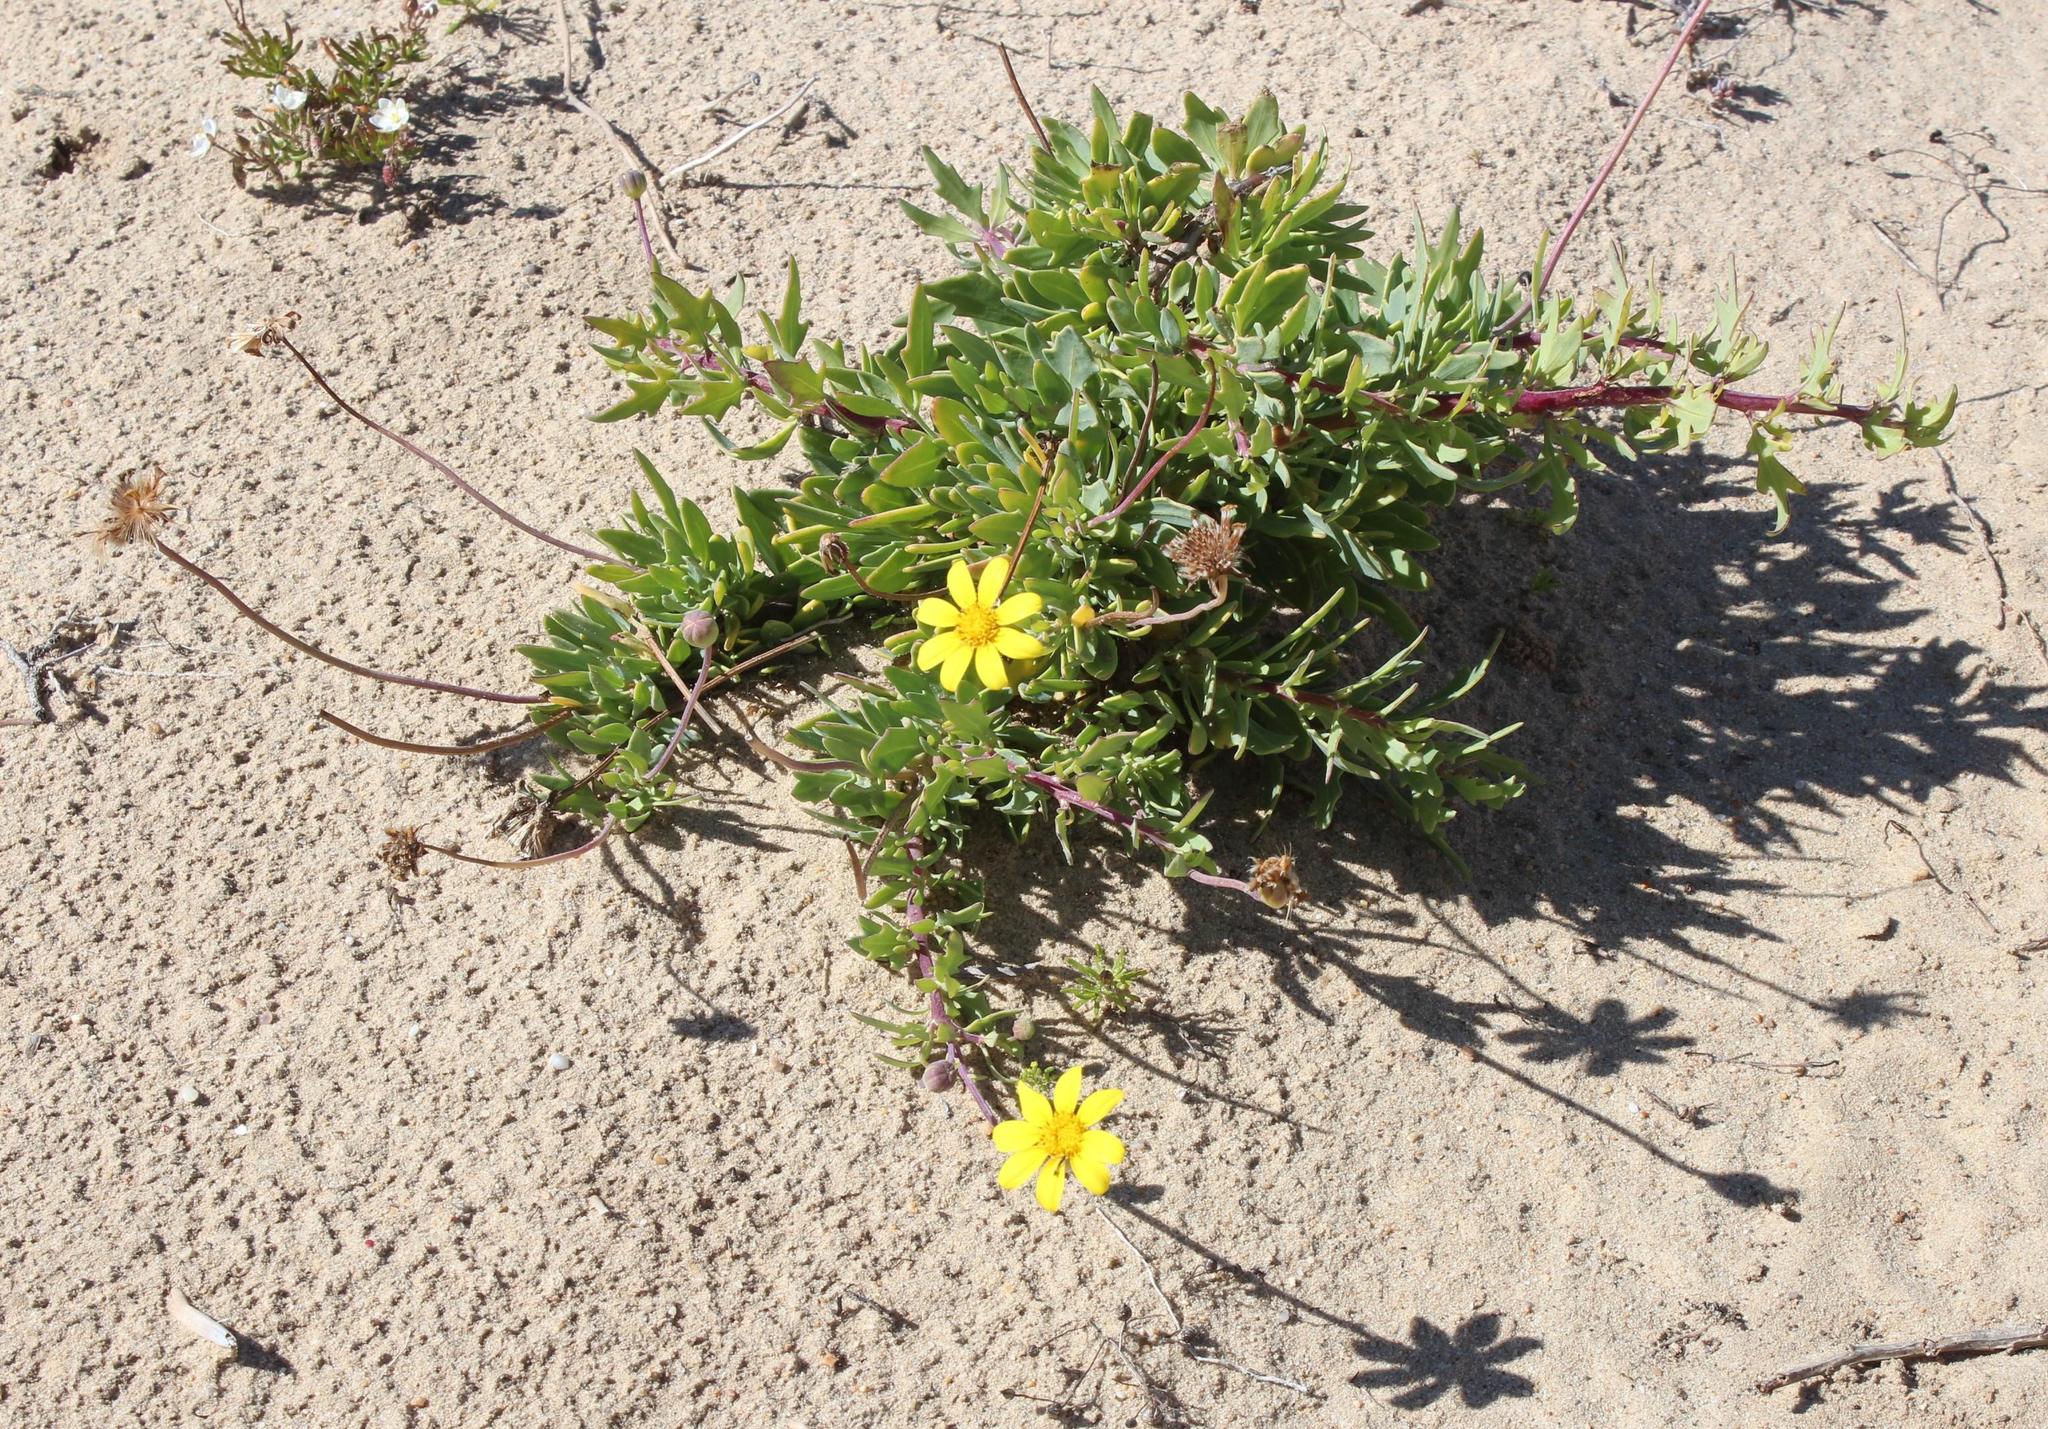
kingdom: Plantae
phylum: Tracheophyta
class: Magnoliopsida
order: Asterales
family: Asteraceae
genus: Othonna
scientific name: Othonna coronopifolia
